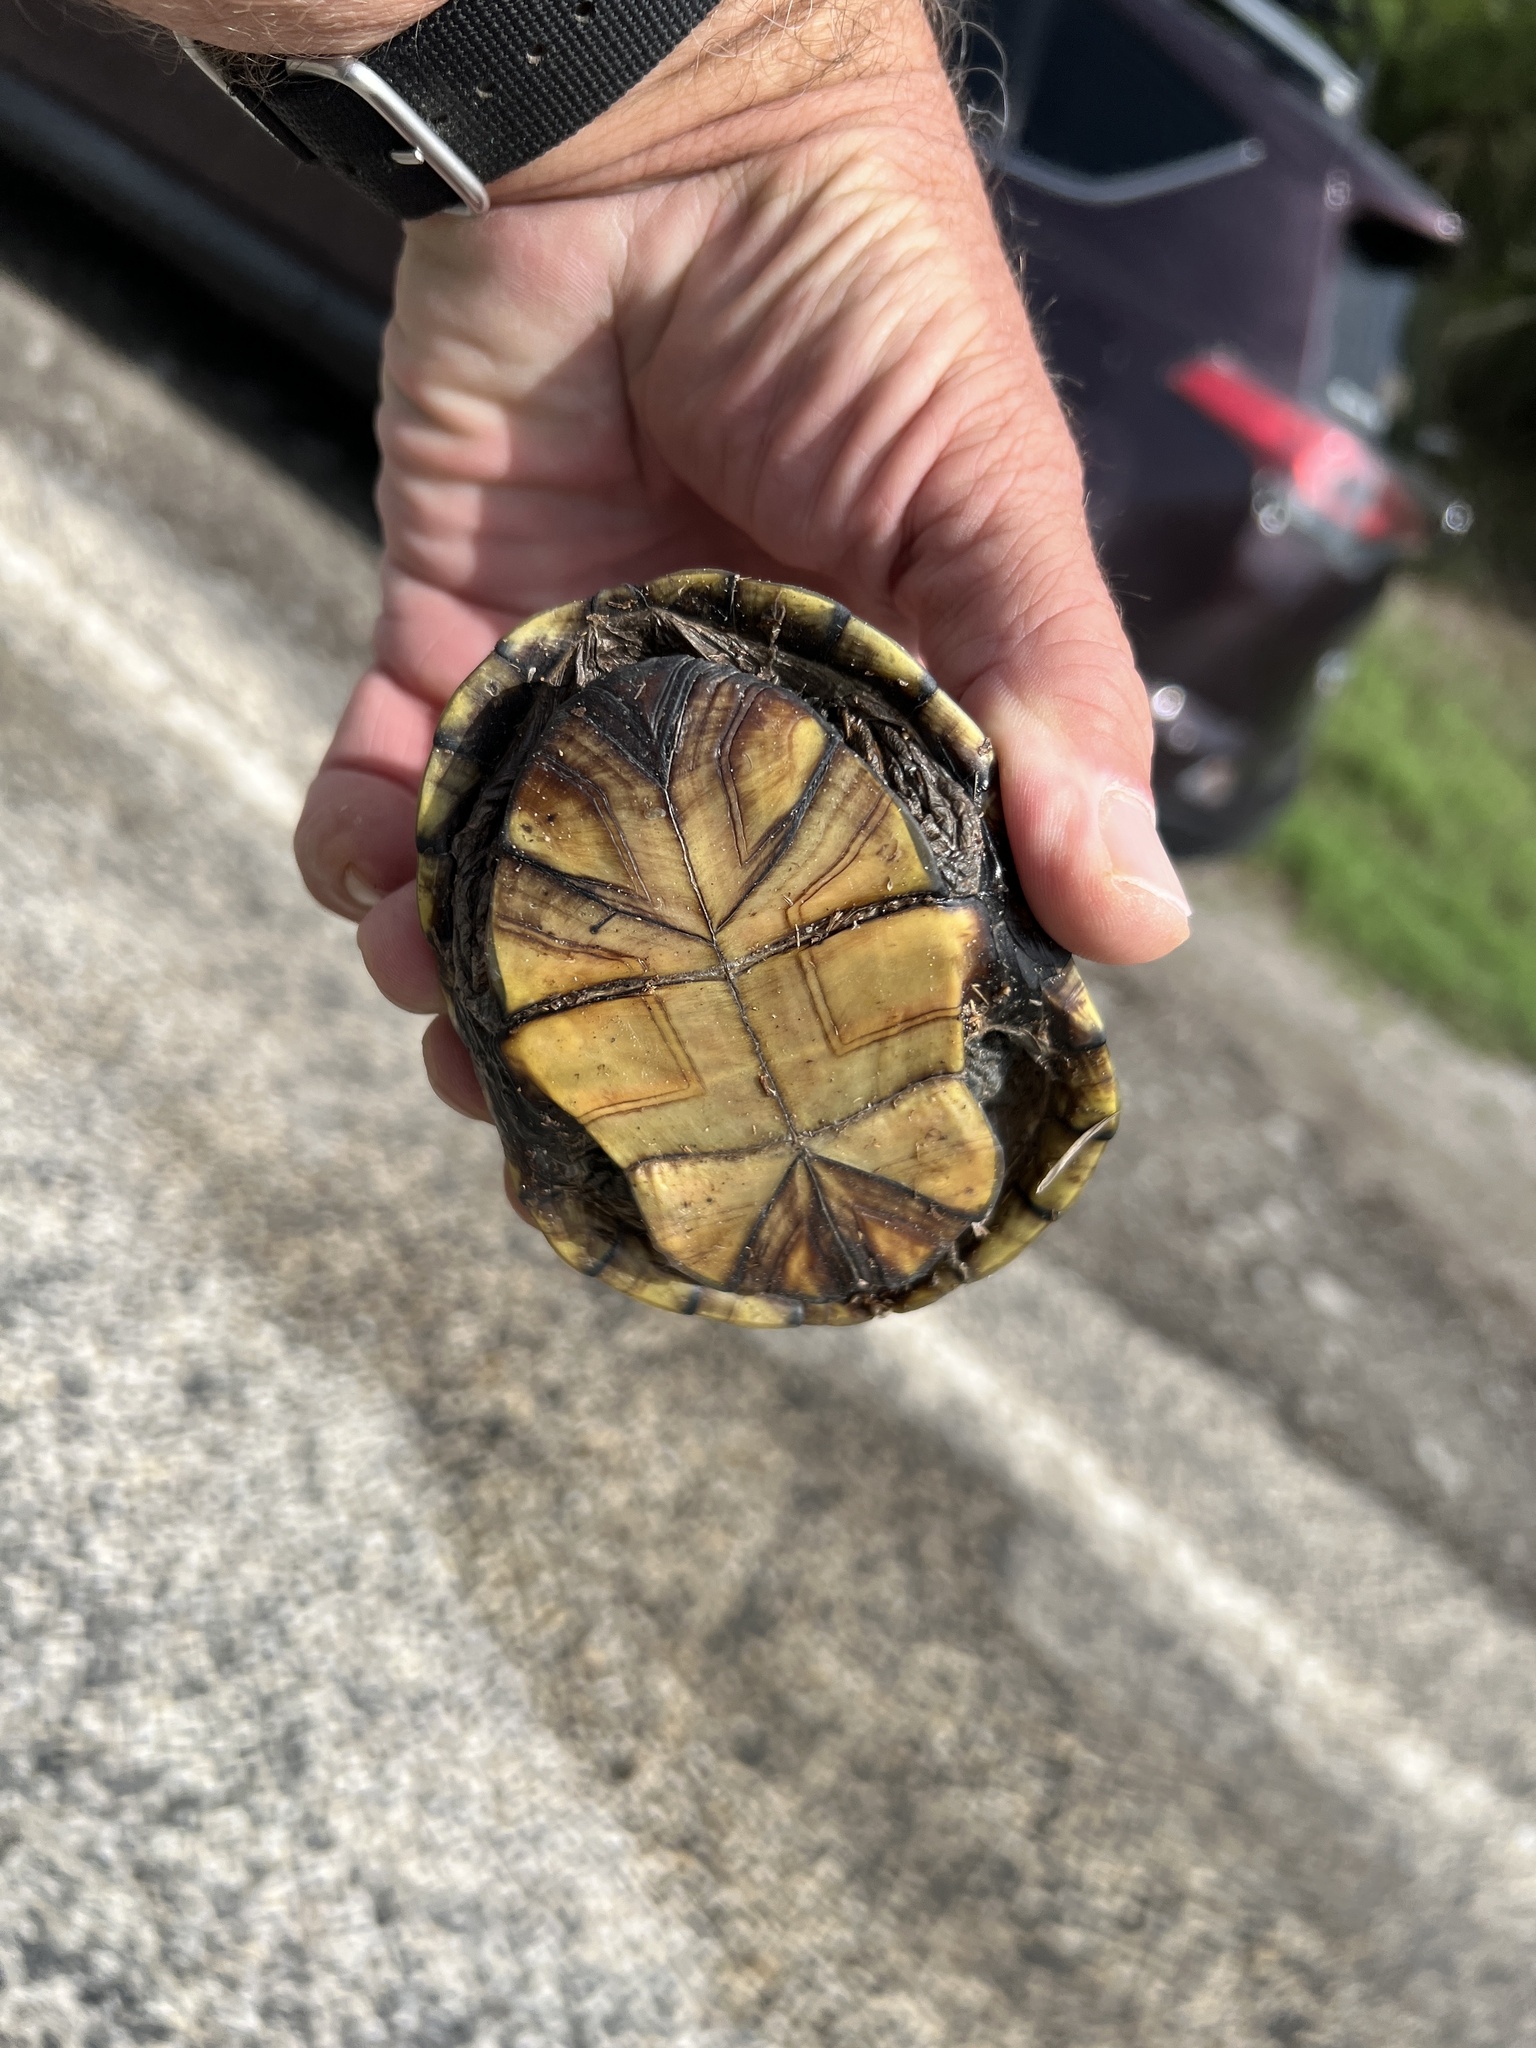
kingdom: Animalia
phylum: Chordata
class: Testudines
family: Kinosternidae
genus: Kinosternon
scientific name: Kinosternon flavescens
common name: Yellow mud turtle
